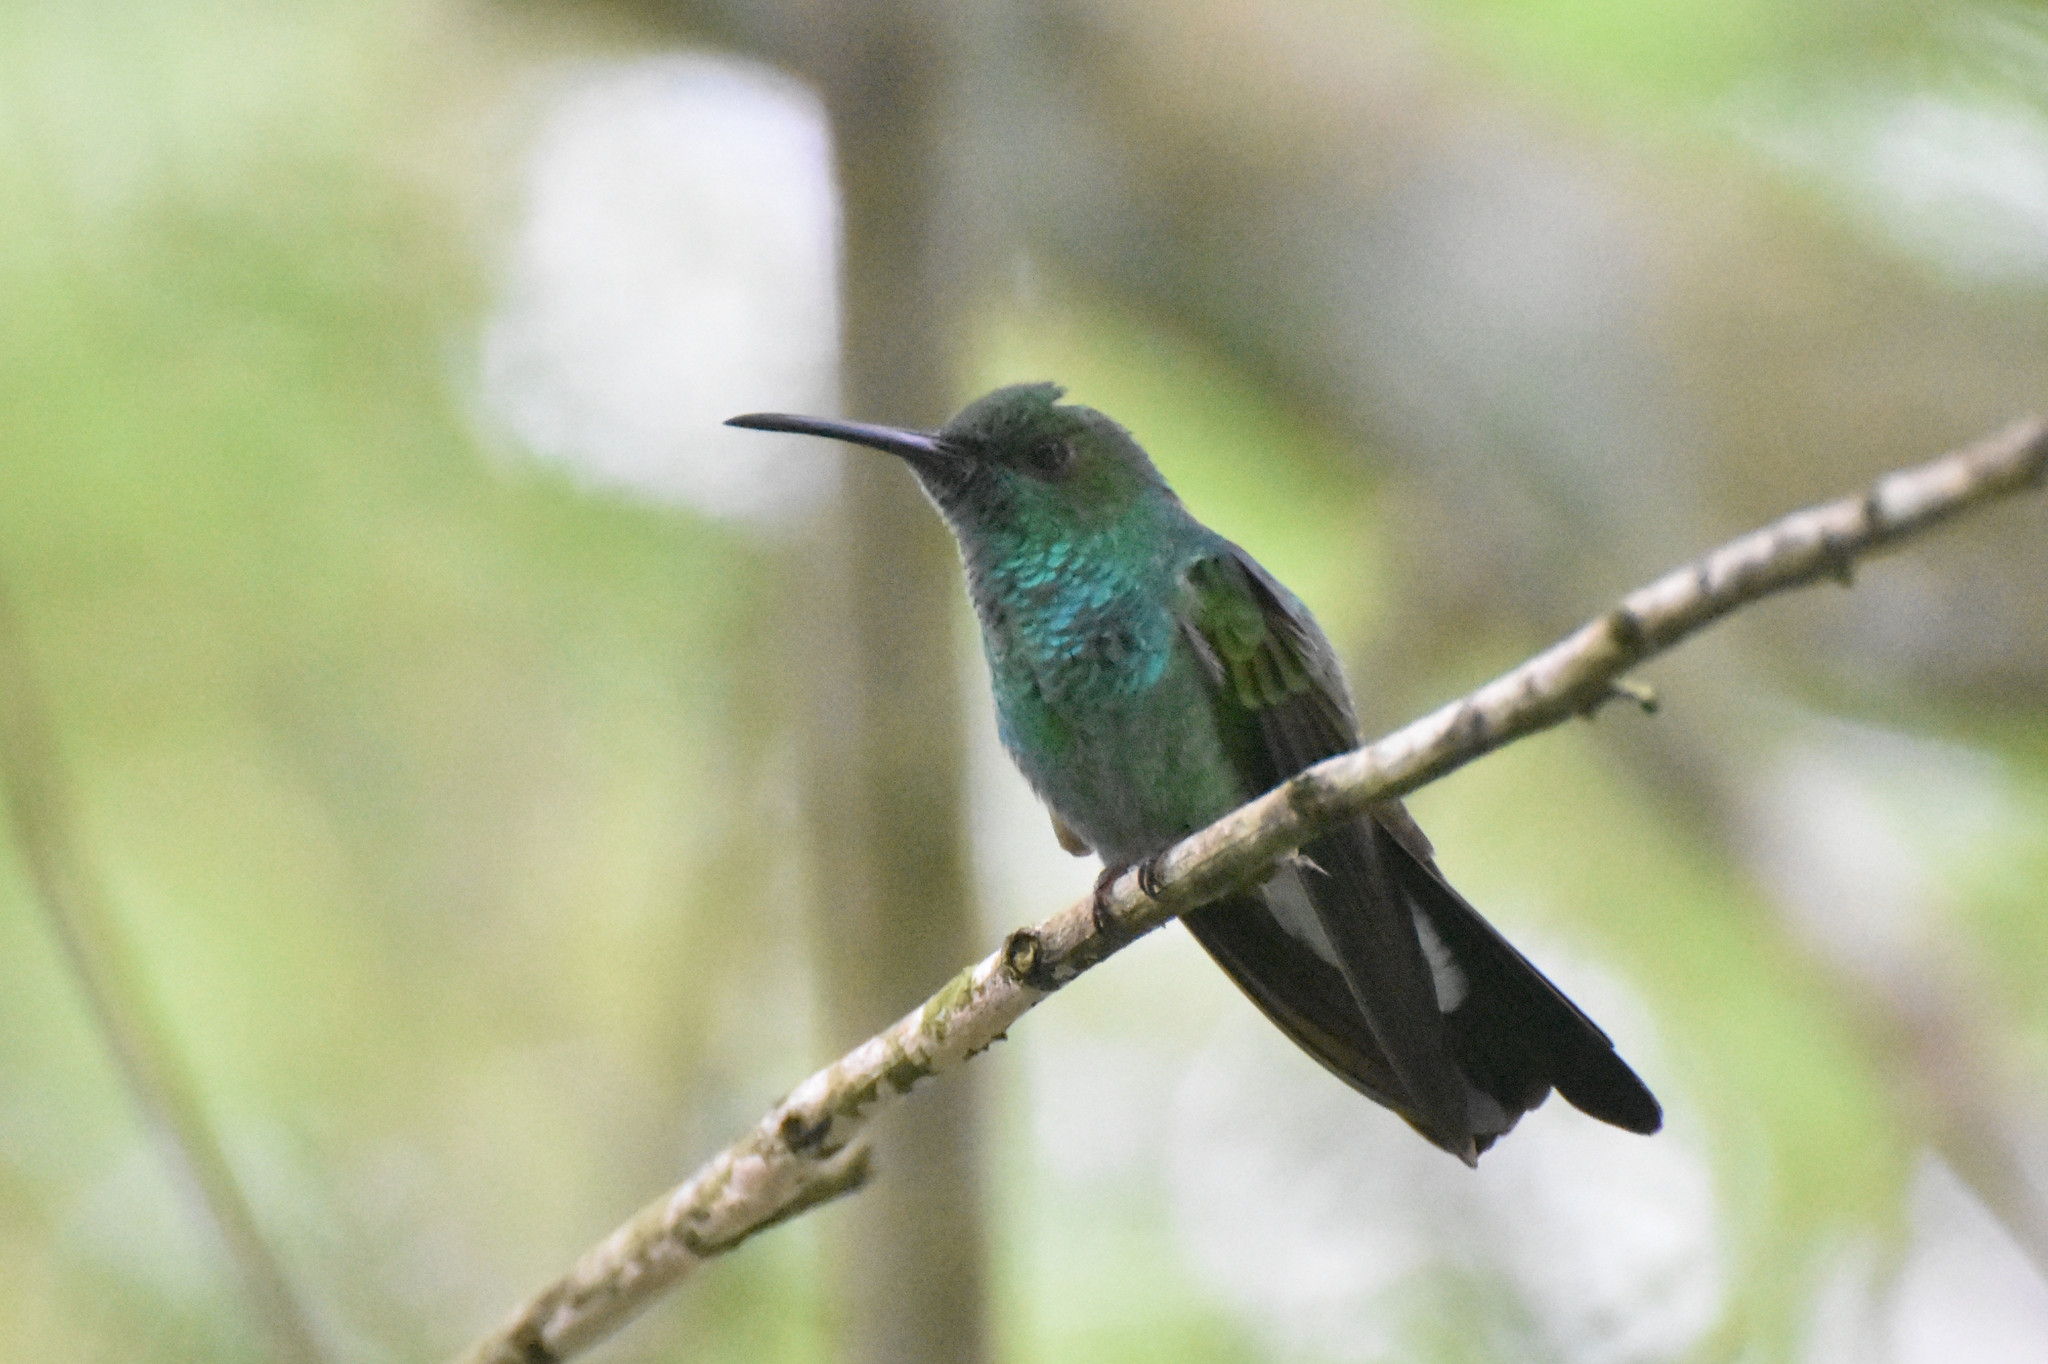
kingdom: Animalia
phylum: Chordata
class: Aves
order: Apodiformes
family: Trochilidae
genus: Chalybura
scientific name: Chalybura buffonii
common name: White-vented plumeleteer
